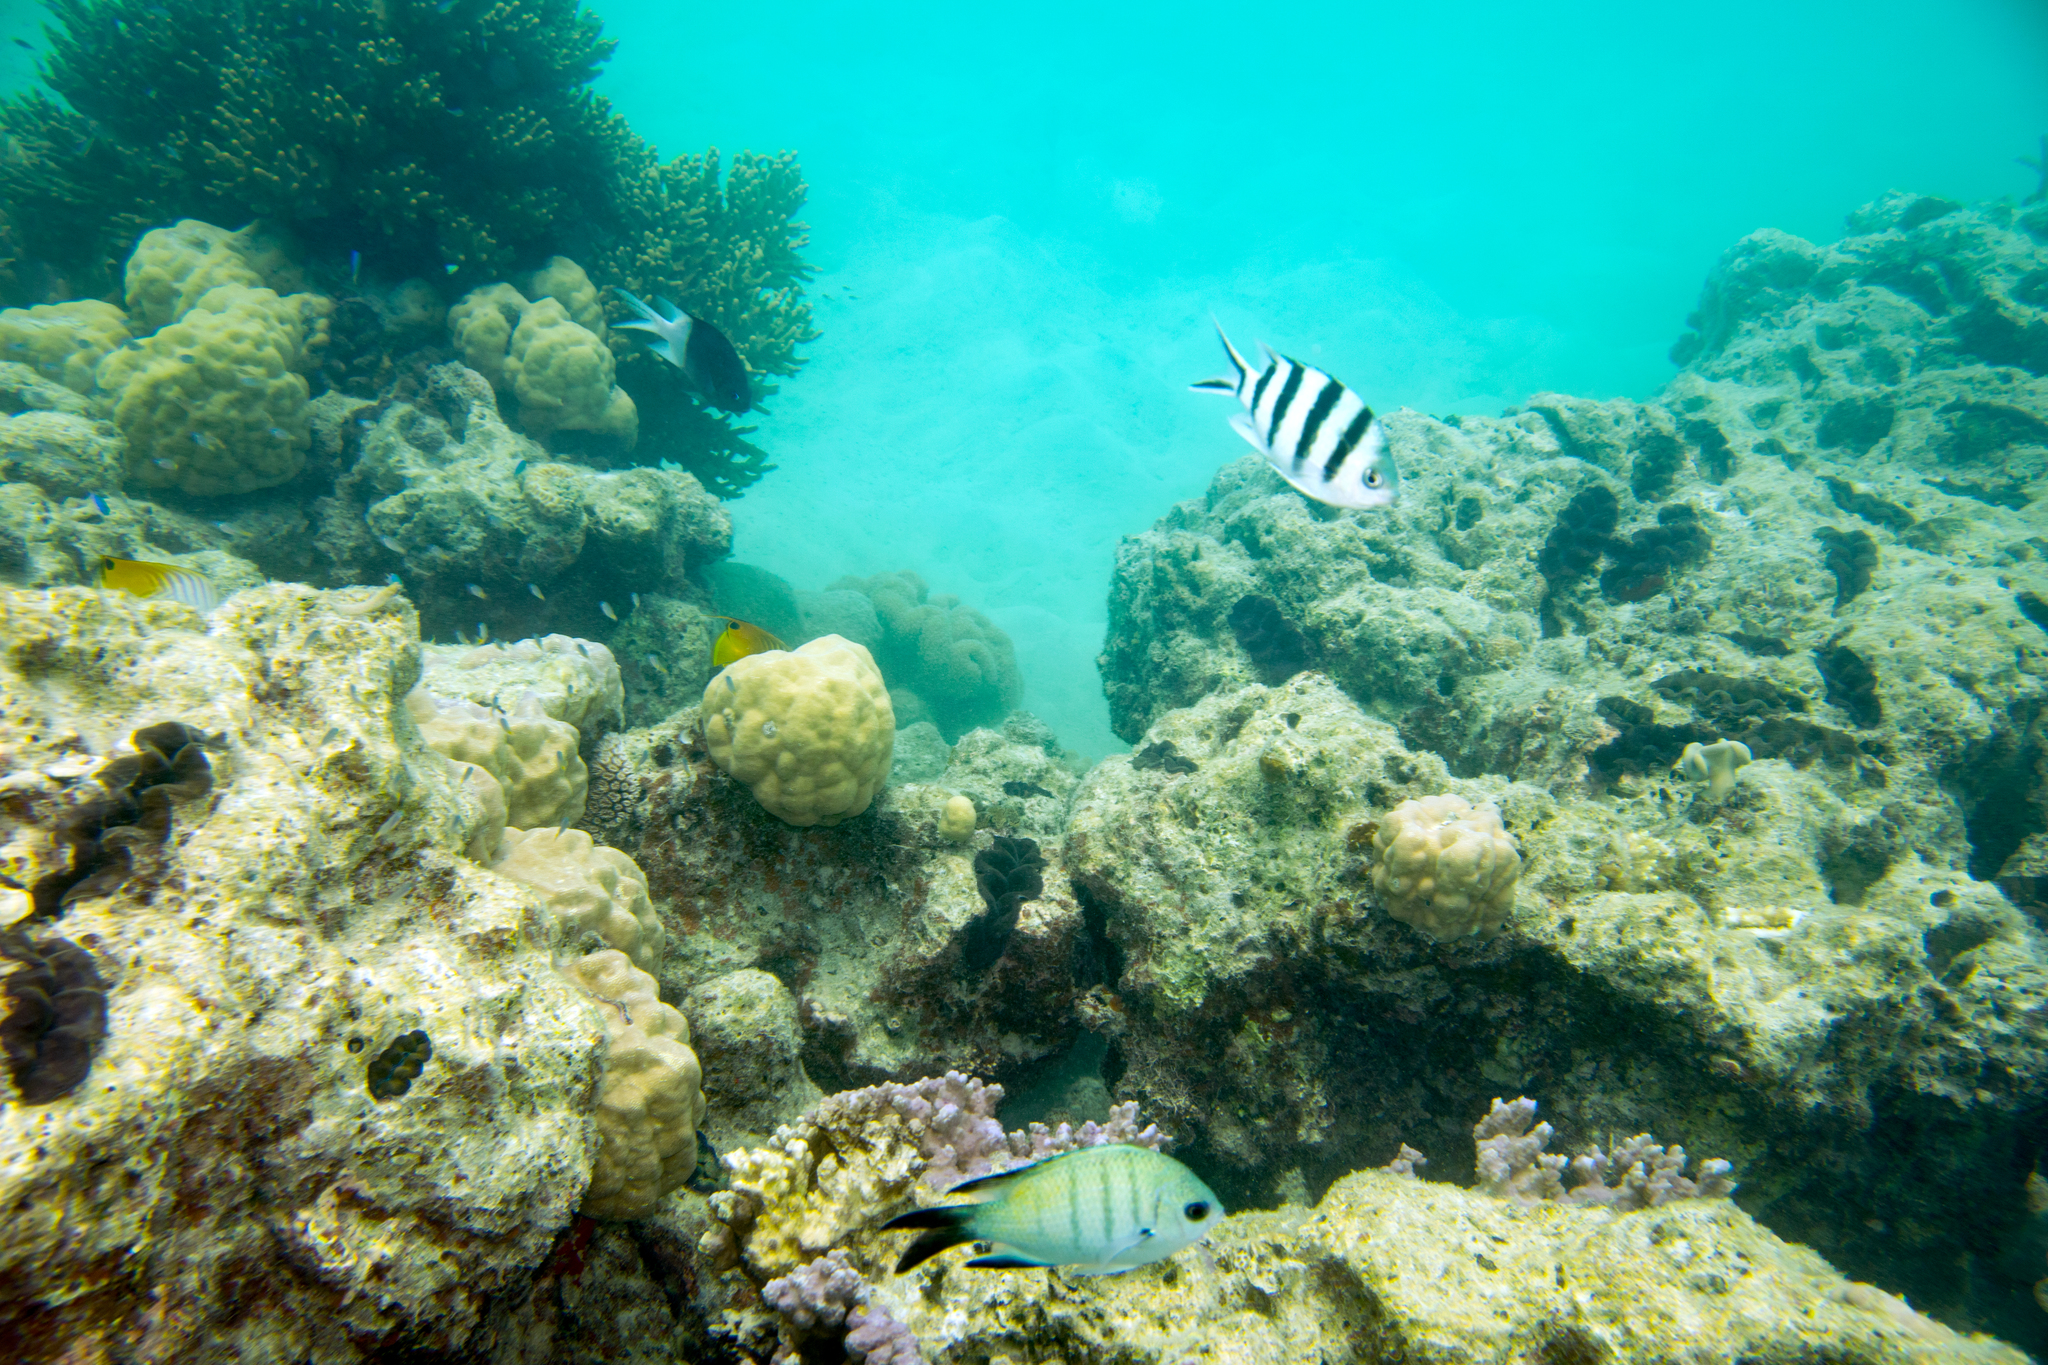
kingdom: Animalia
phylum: Chordata
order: Perciformes
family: Pomacentridae
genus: Abudefduf
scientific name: Abudefduf sexfasciatus
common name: Scissortail sergeant
